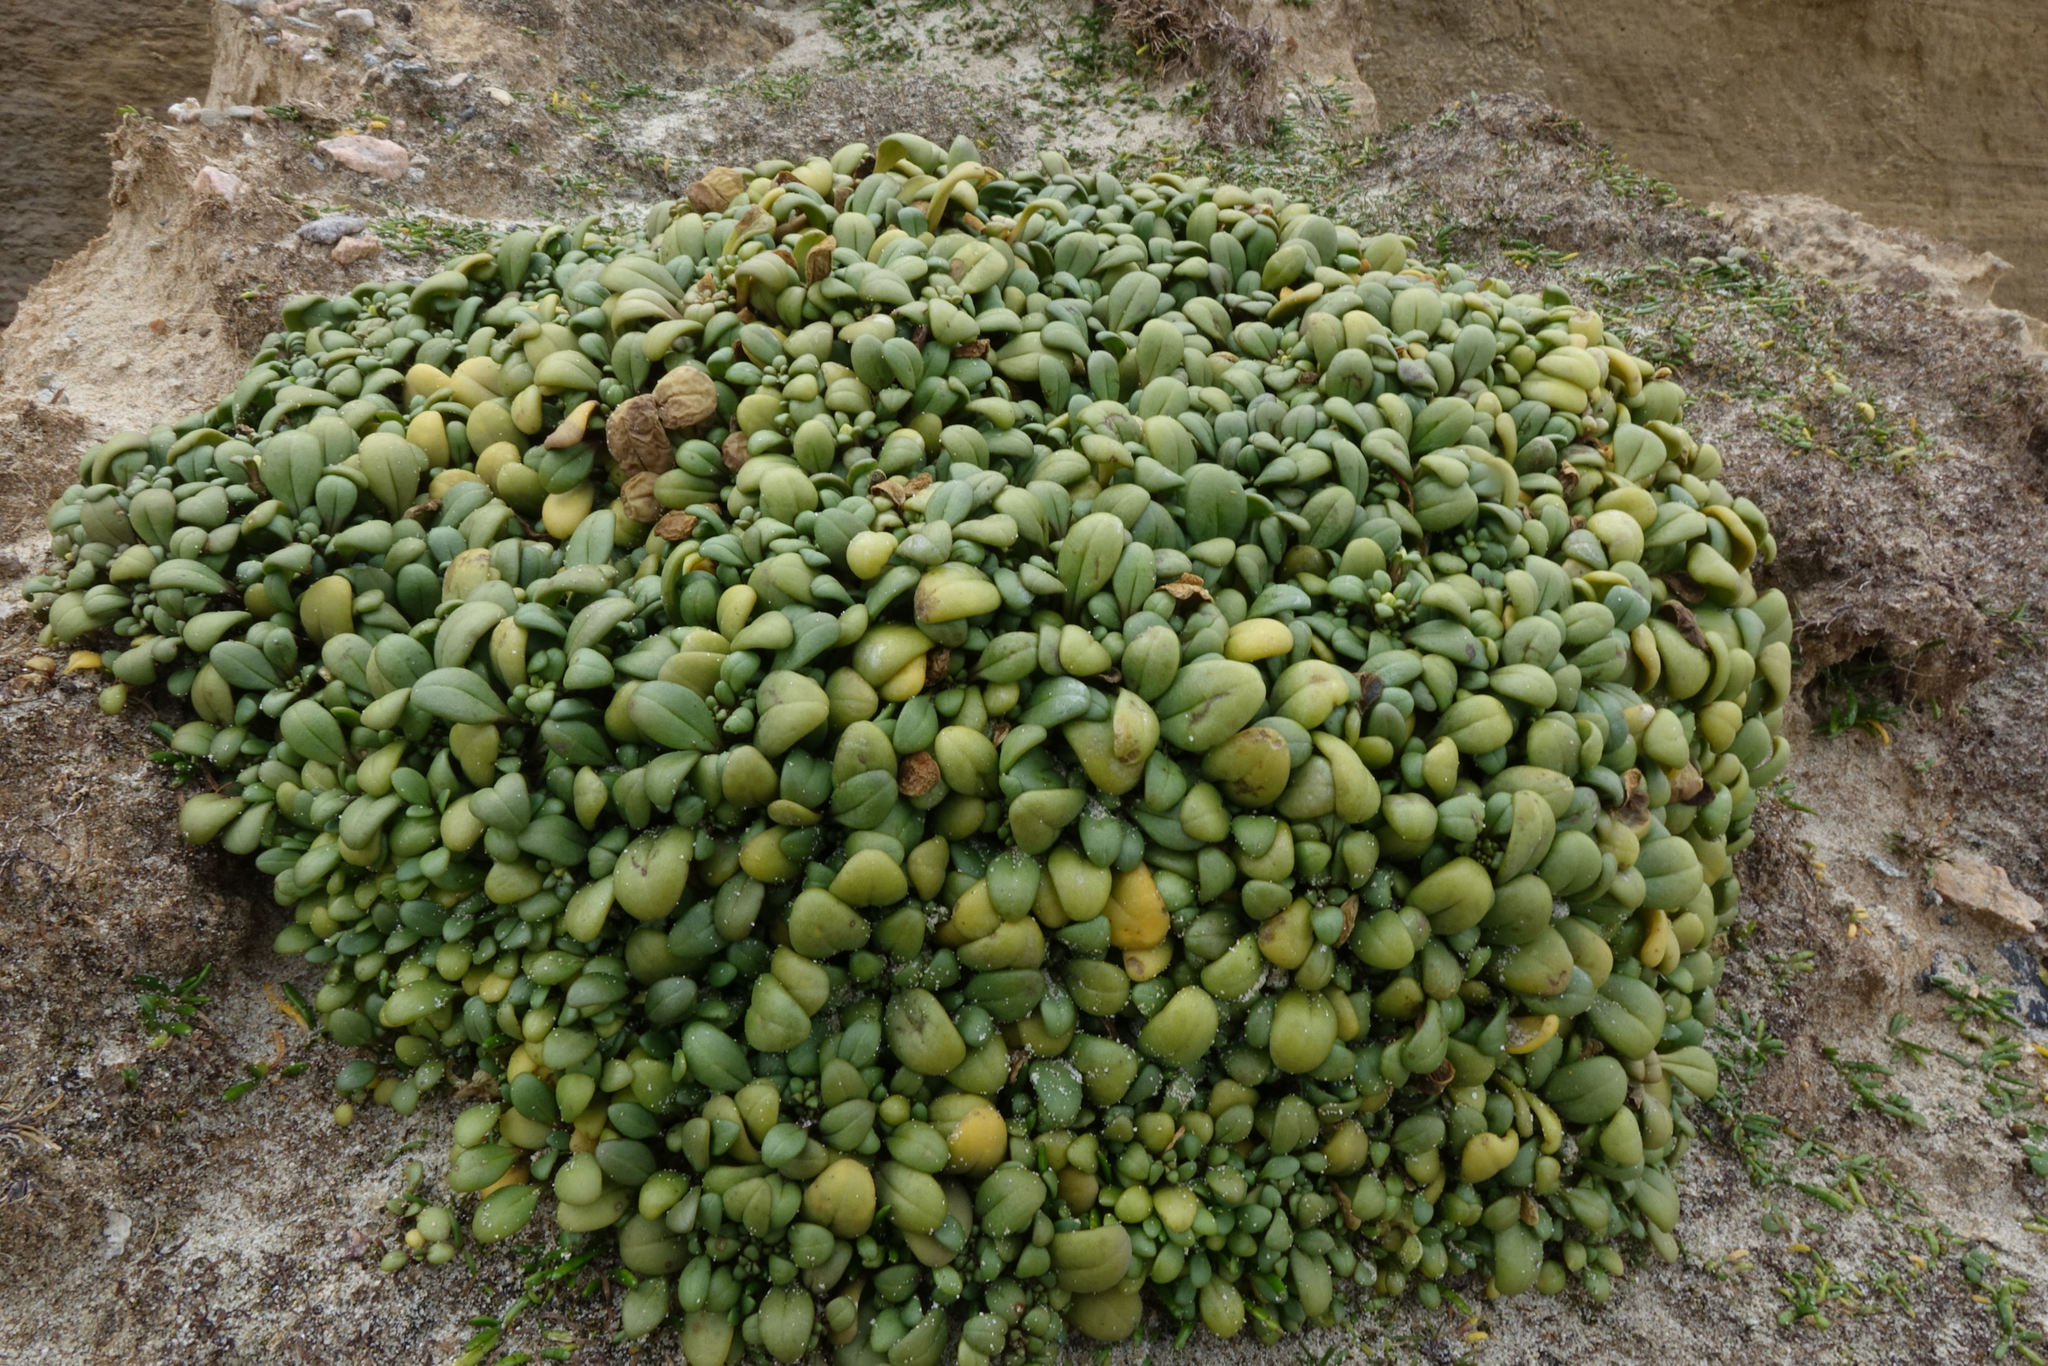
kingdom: Plantae
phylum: Tracheophyta
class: Magnoliopsida
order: Gentianales
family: Gentianaceae
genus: Gentianella
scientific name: Gentianella saxosa
